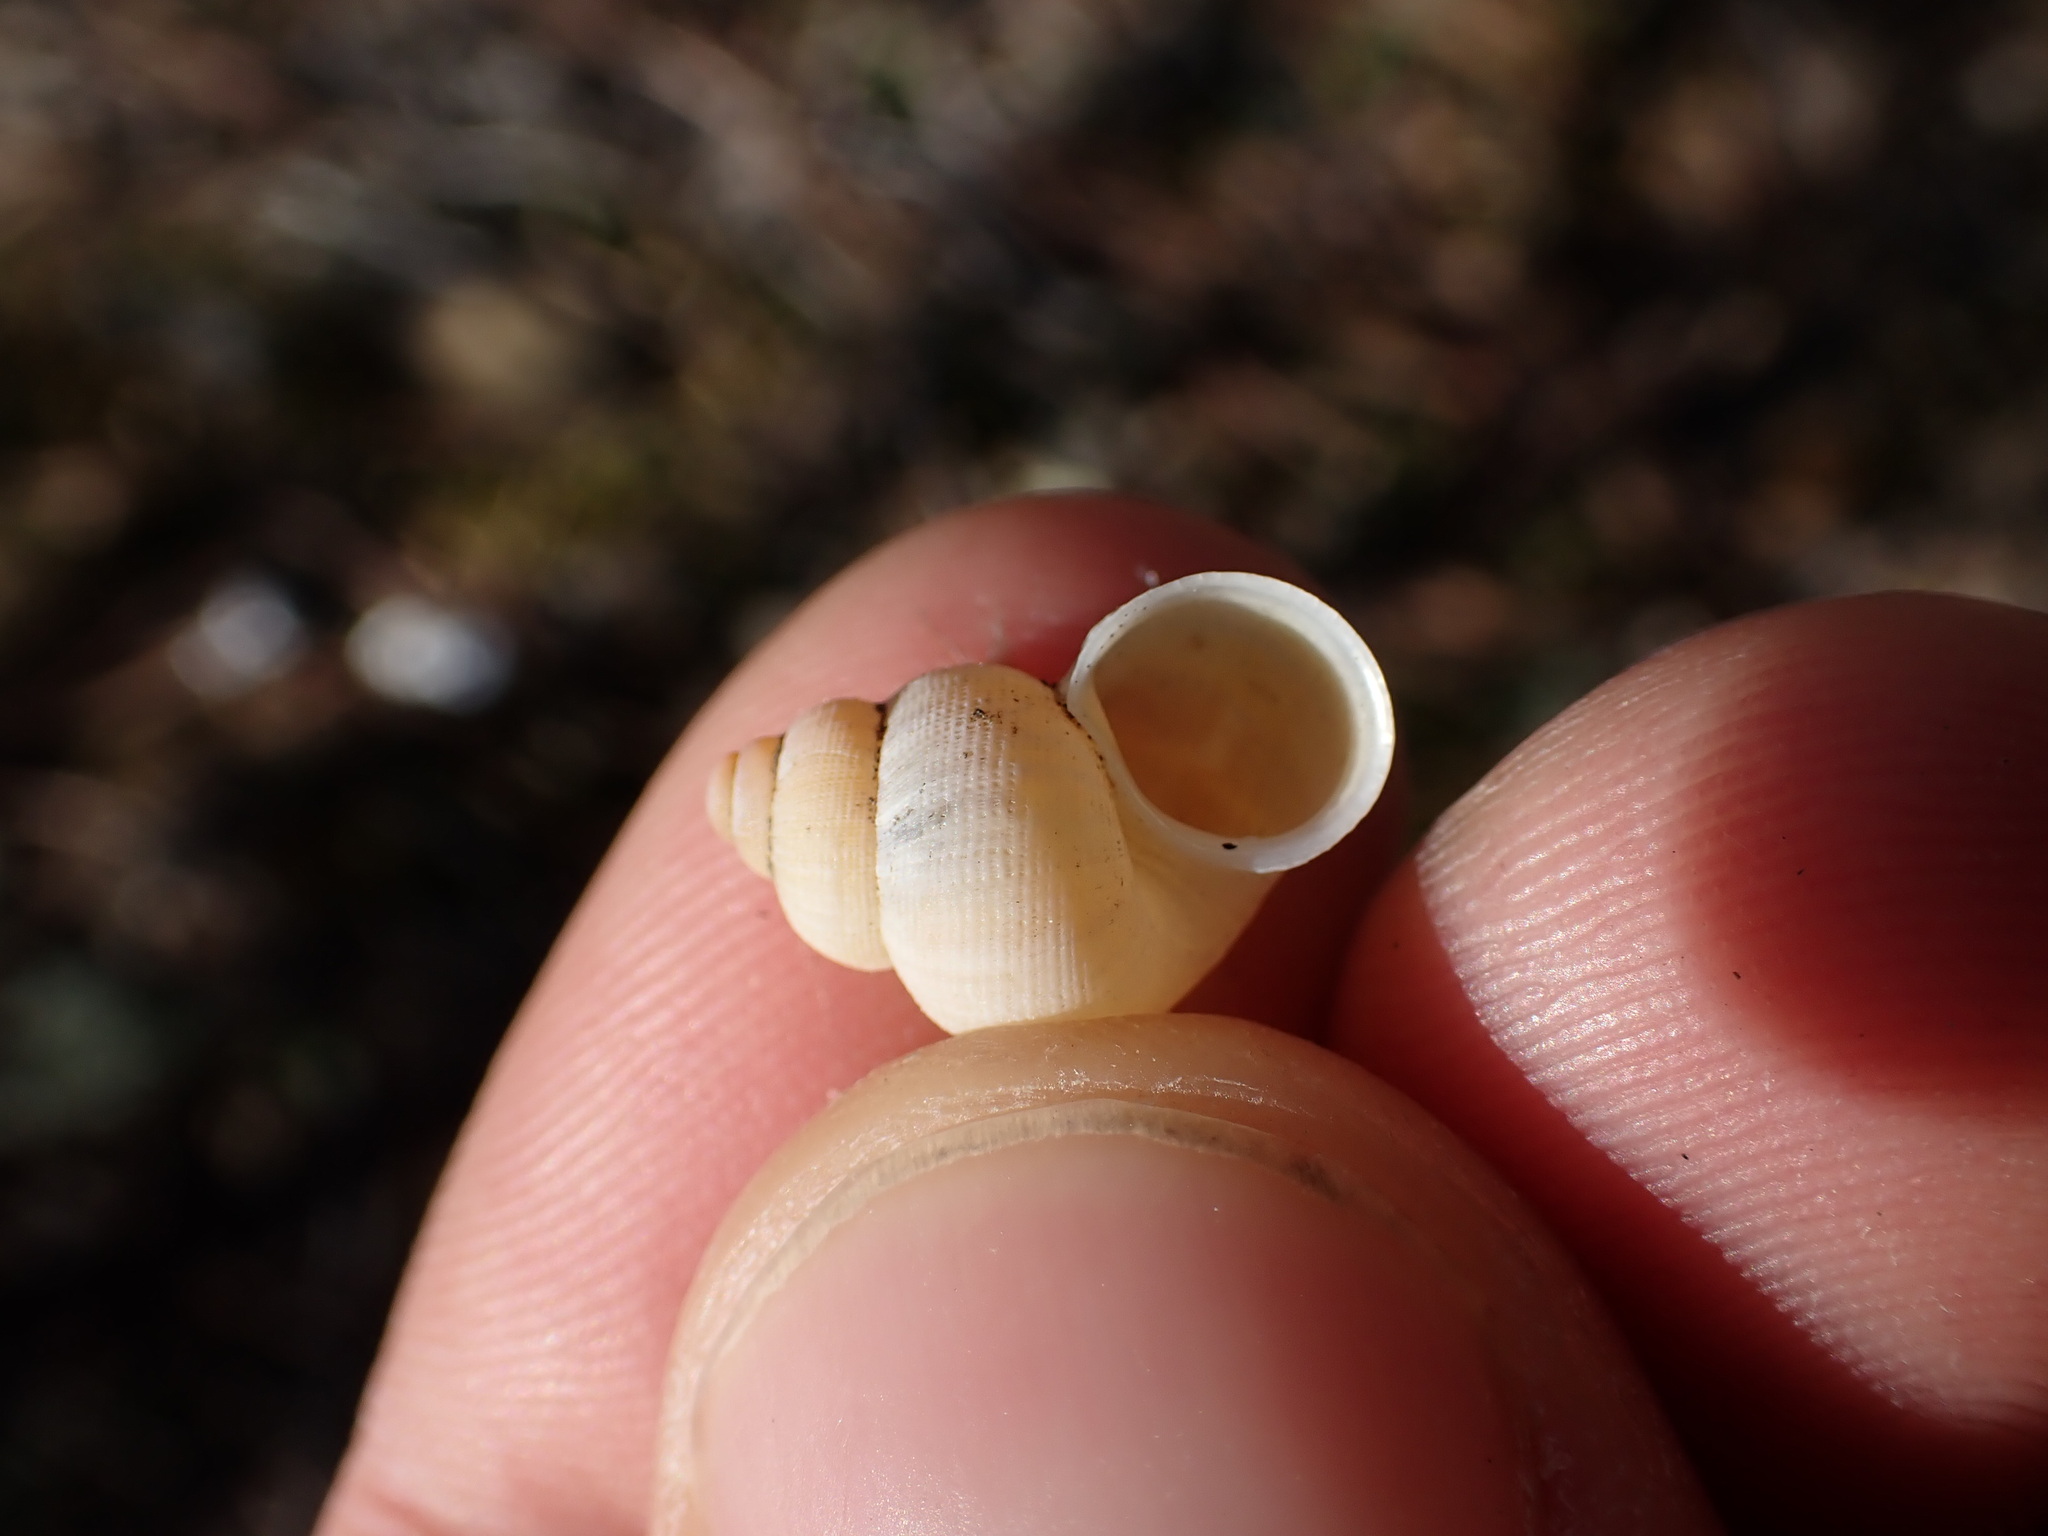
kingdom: Animalia
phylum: Mollusca
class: Gastropoda
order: Littorinimorpha
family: Pomatiidae
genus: Pomatias
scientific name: Pomatias elegans
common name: Red-mouthed snail
